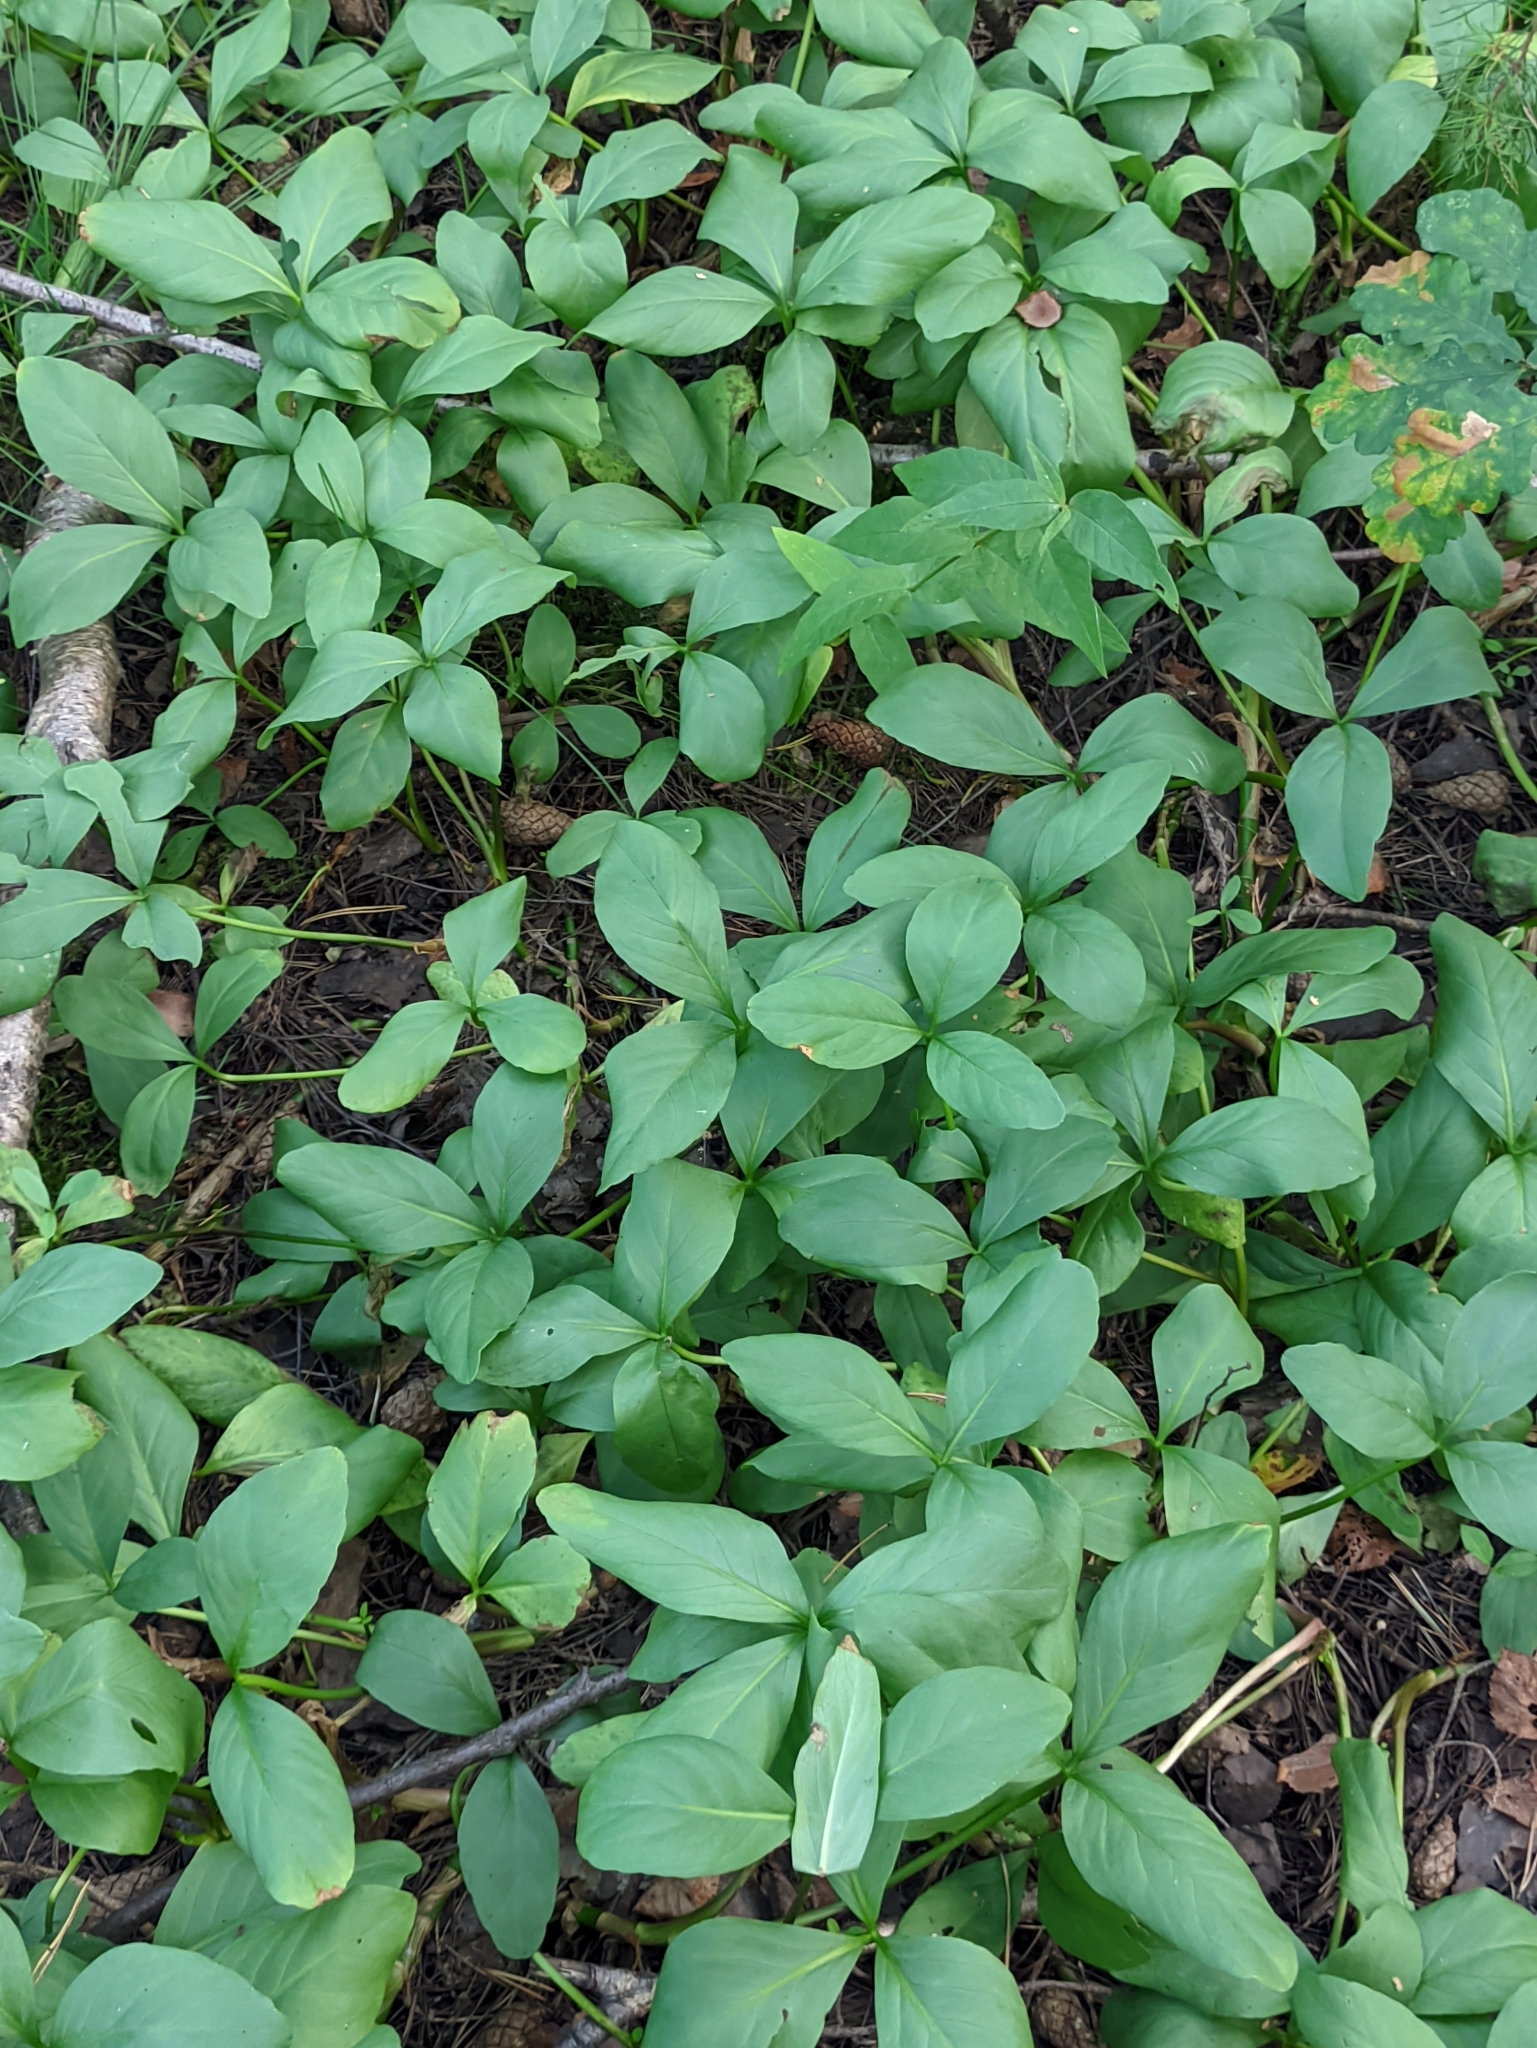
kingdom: Plantae
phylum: Tracheophyta
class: Magnoliopsida
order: Asterales
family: Menyanthaceae
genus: Menyanthes
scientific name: Menyanthes trifoliata
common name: Bogbean
